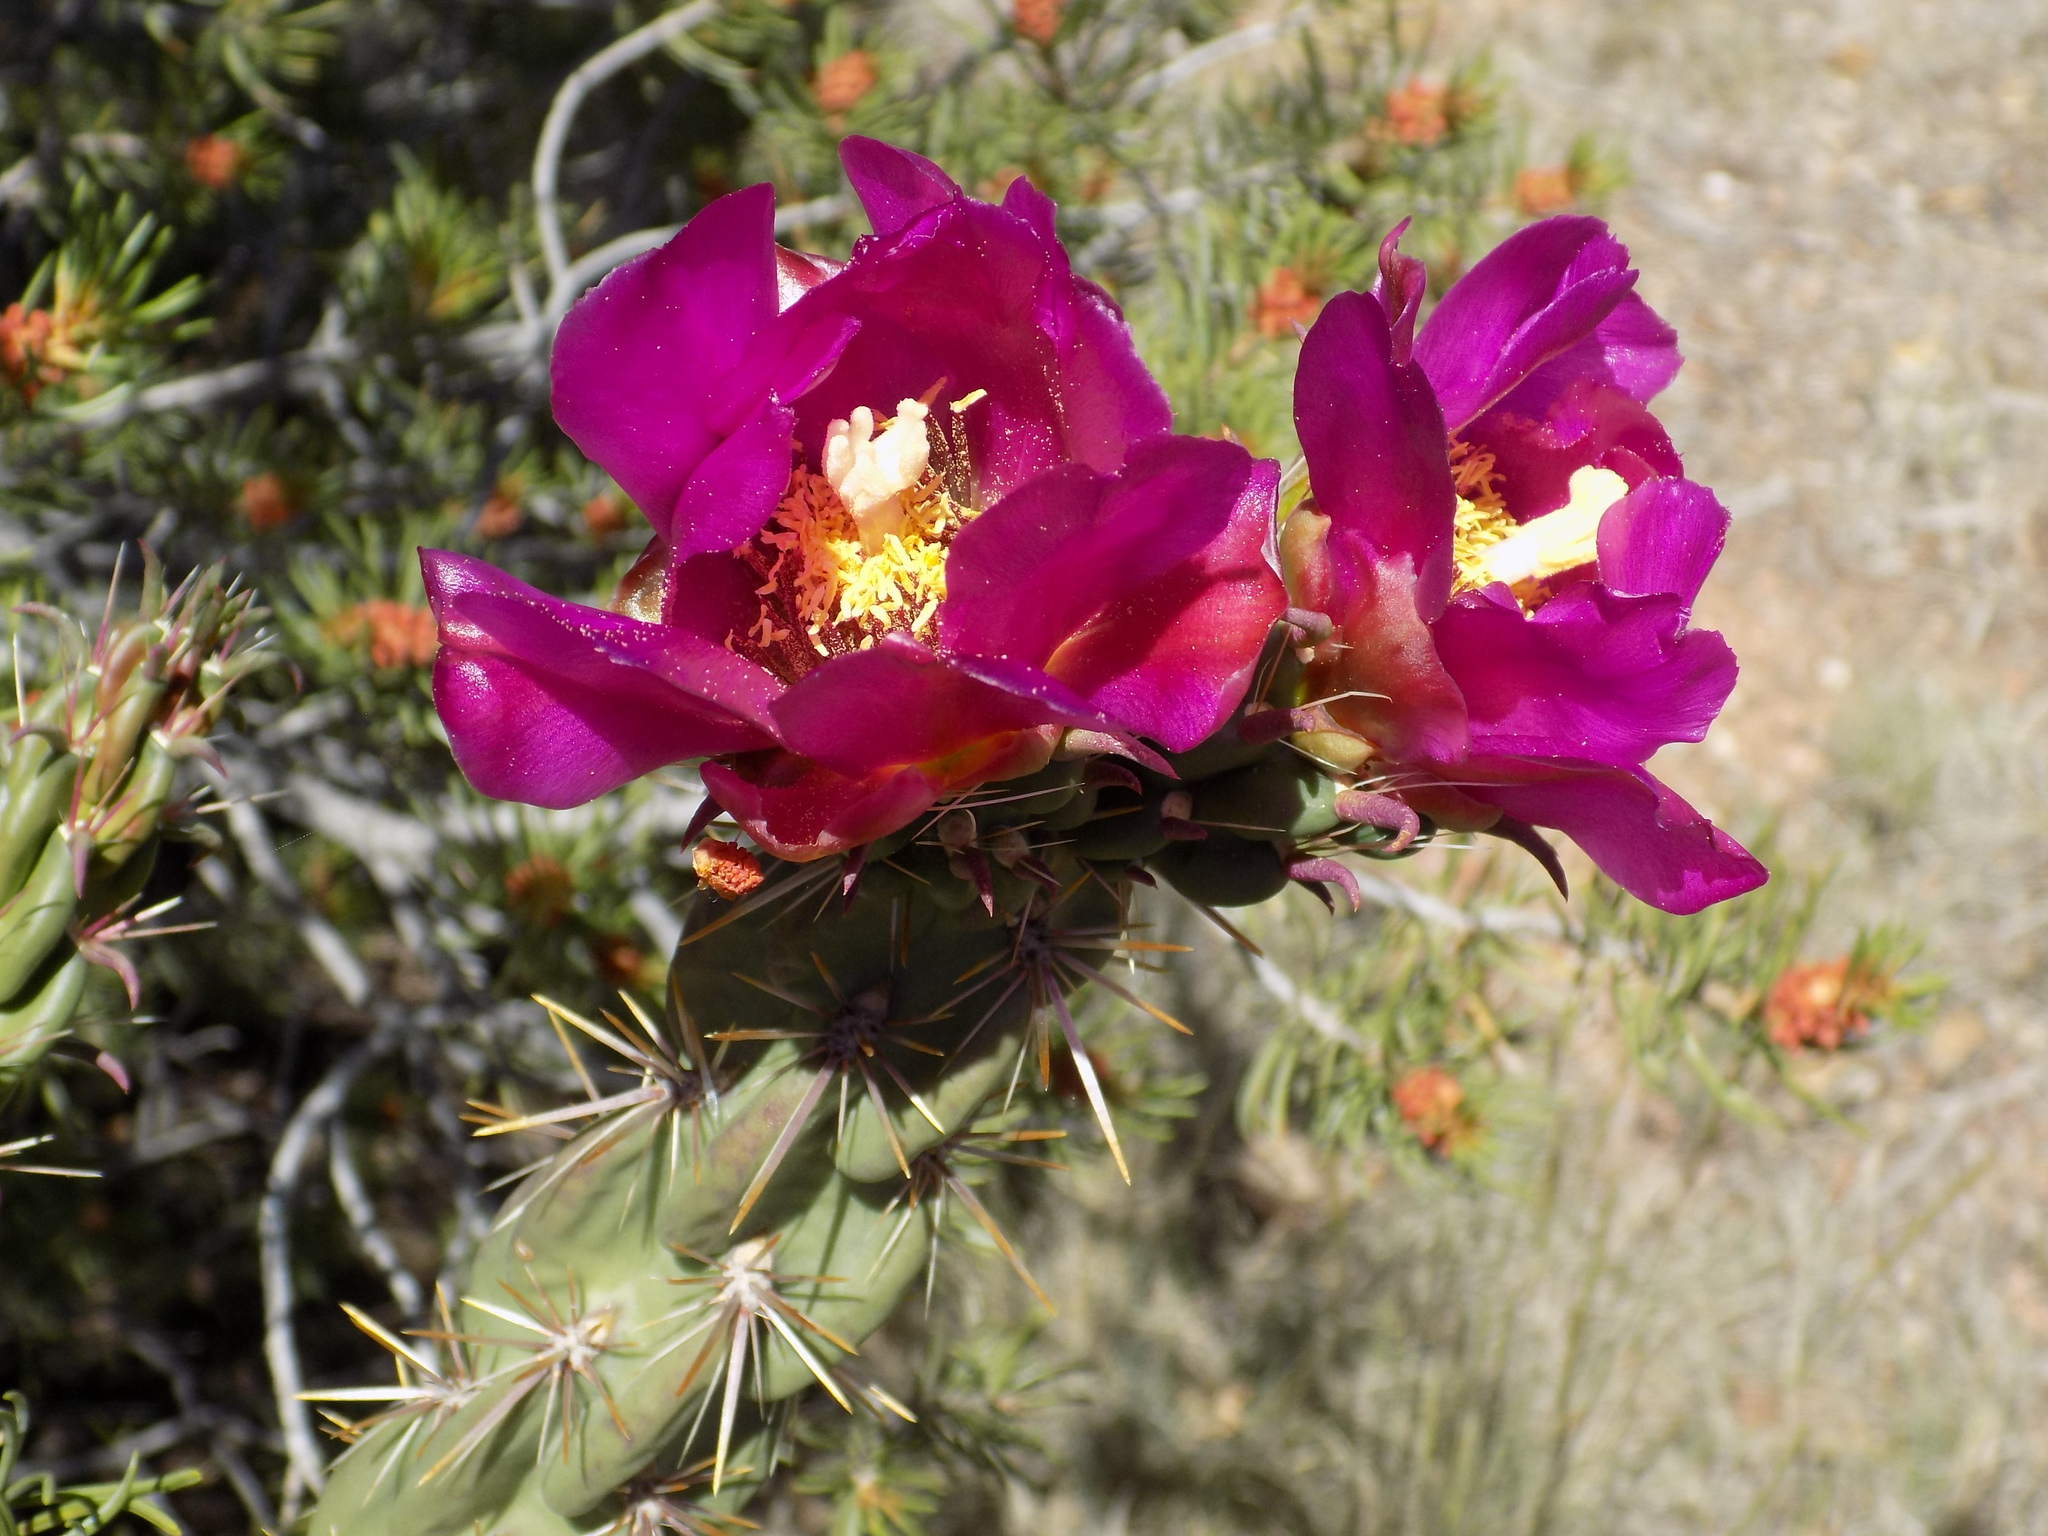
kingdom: Plantae
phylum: Tracheophyta
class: Magnoliopsida
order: Caryophyllales
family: Cactaceae
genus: Cylindropuntia
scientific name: Cylindropuntia imbricata
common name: Candelabrum cactus
